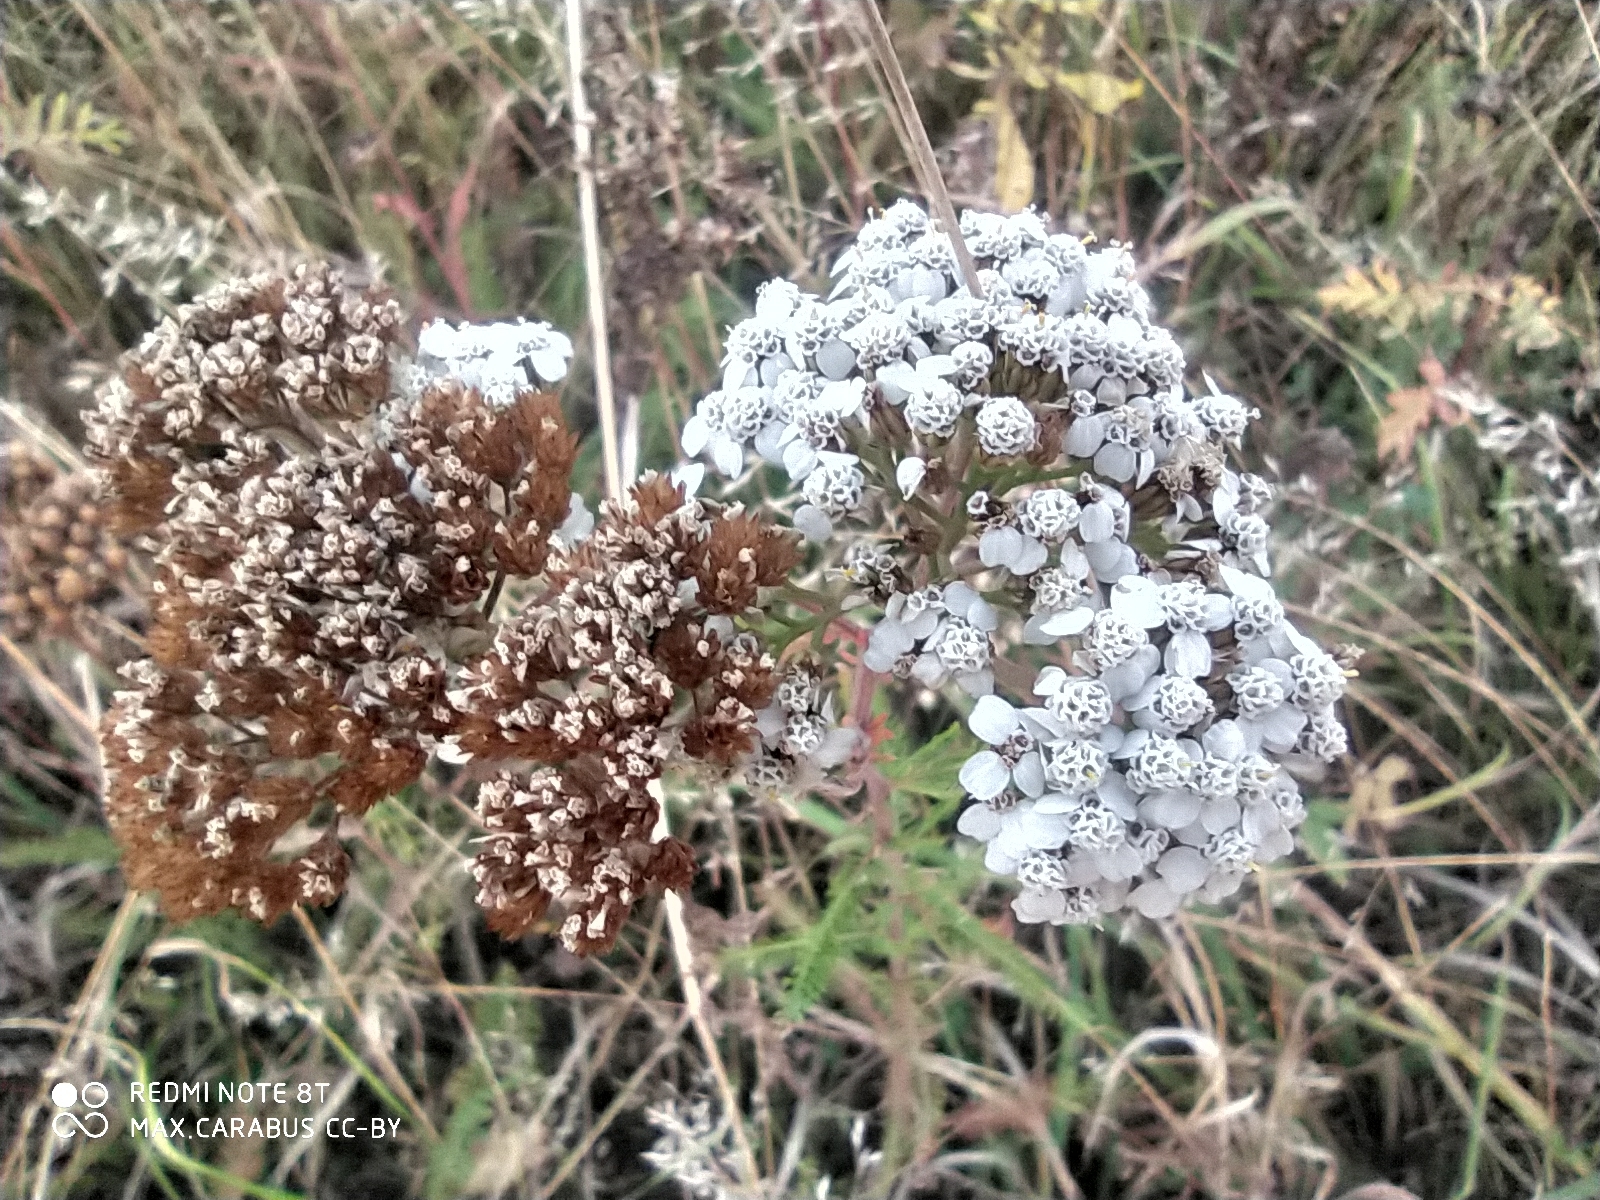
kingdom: Plantae
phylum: Tracheophyta
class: Magnoliopsida
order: Asterales
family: Asteraceae
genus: Achillea
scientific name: Achillea millefolium
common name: Yarrow
